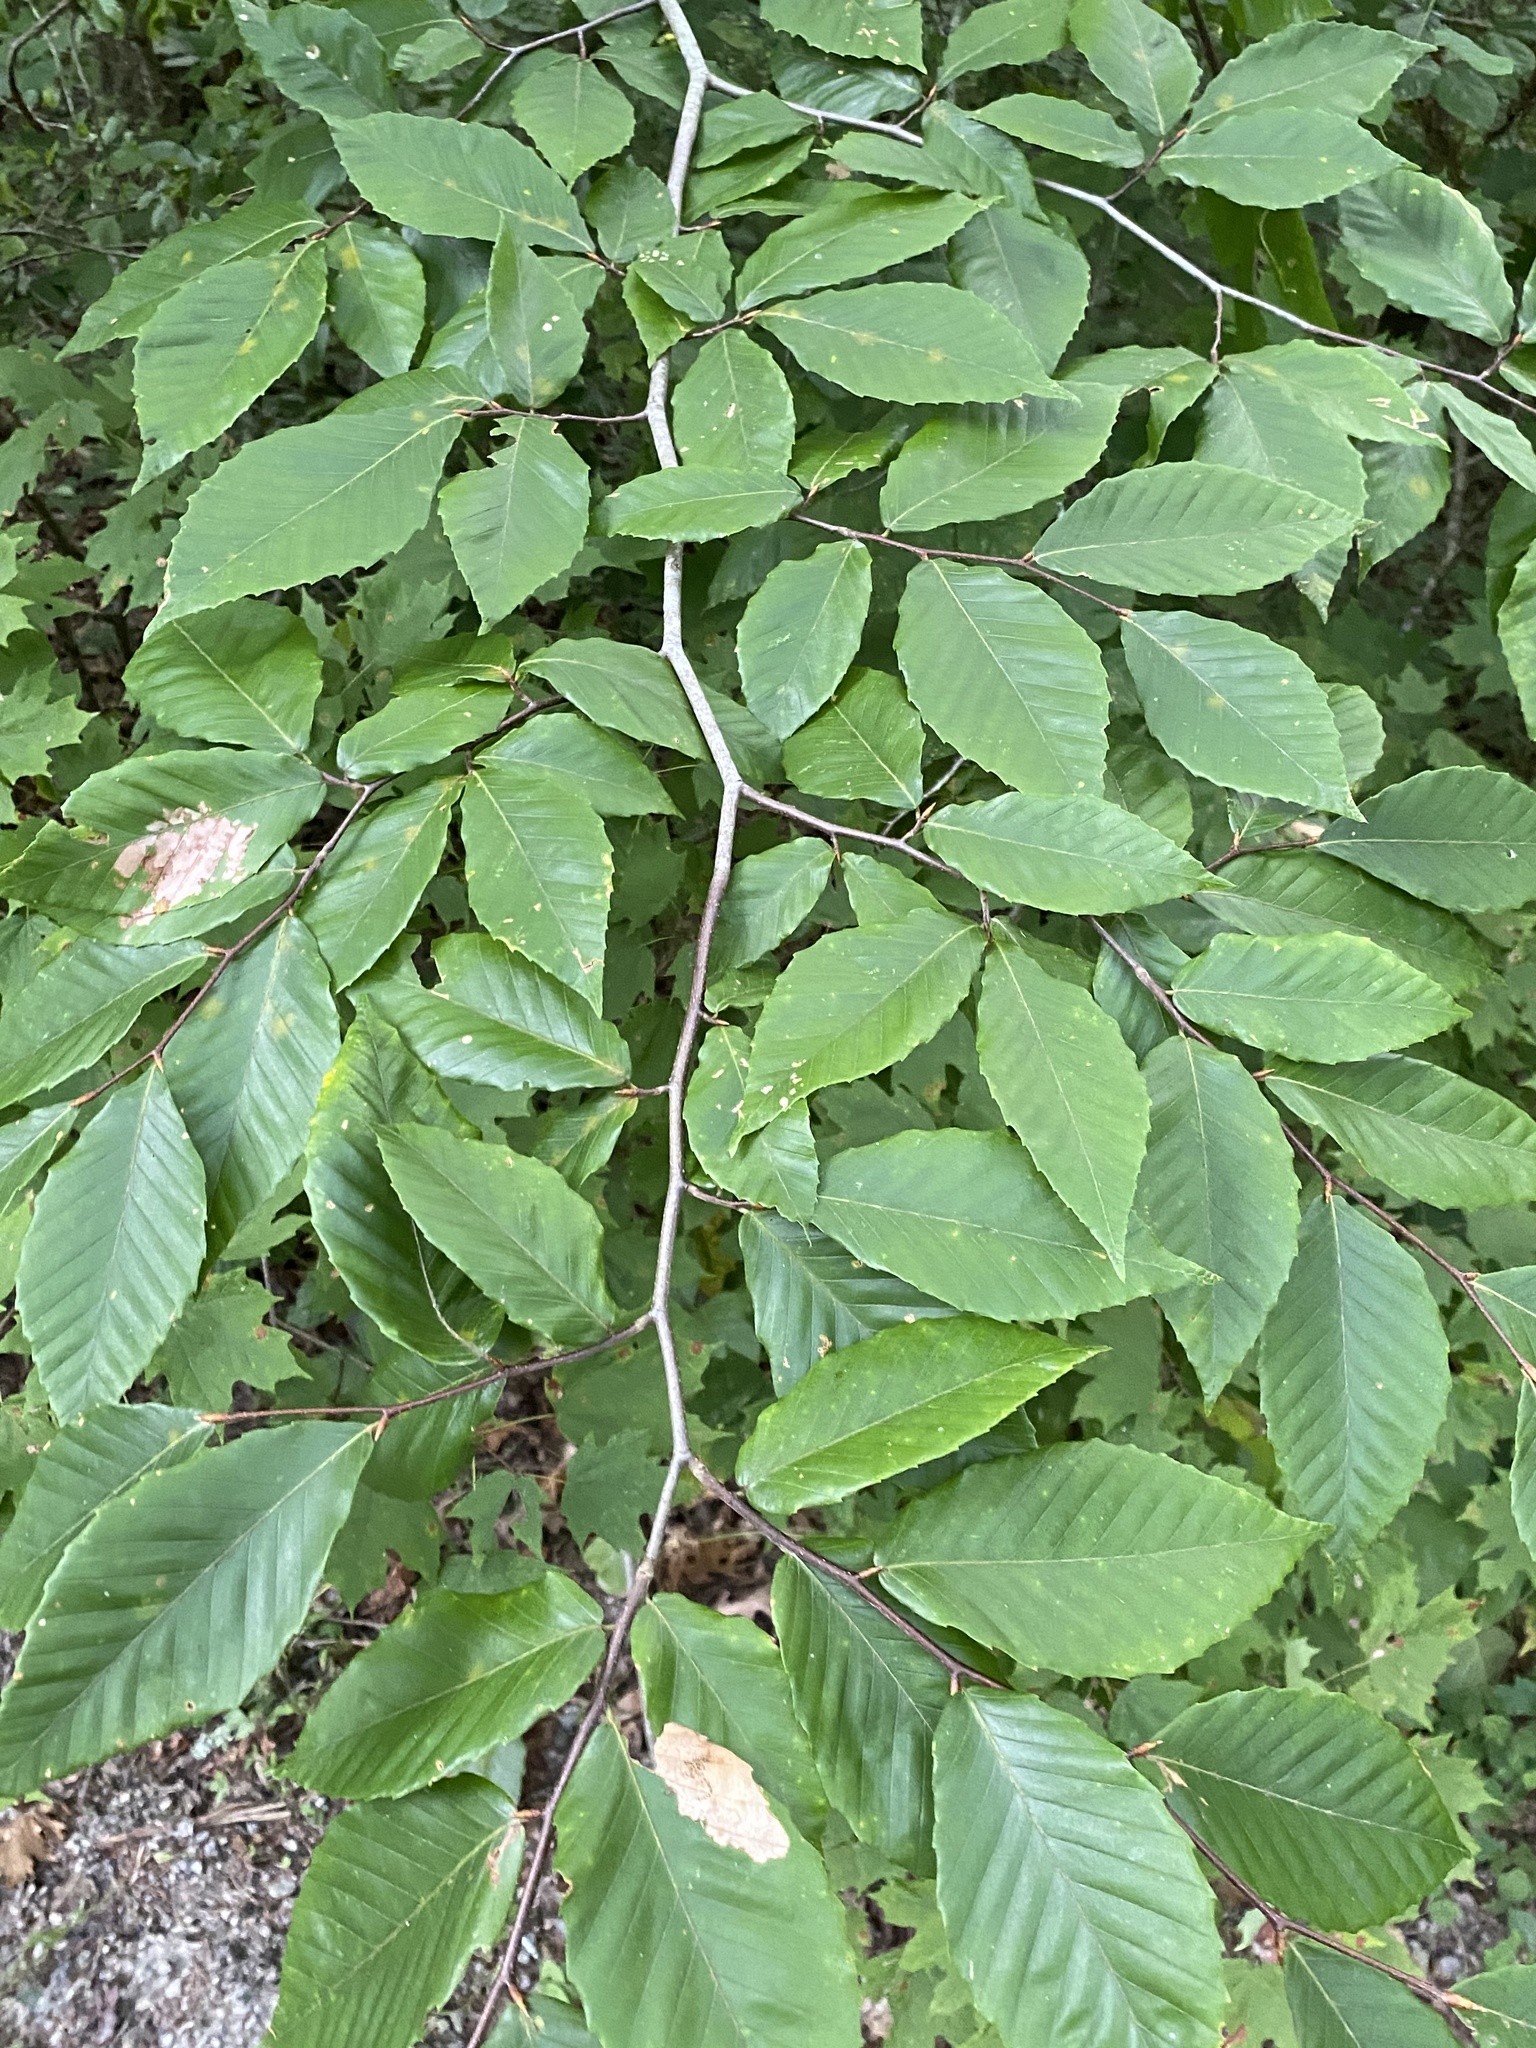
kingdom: Plantae
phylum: Tracheophyta
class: Magnoliopsida
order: Fagales
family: Fagaceae
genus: Fagus
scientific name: Fagus grandifolia
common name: American beech
